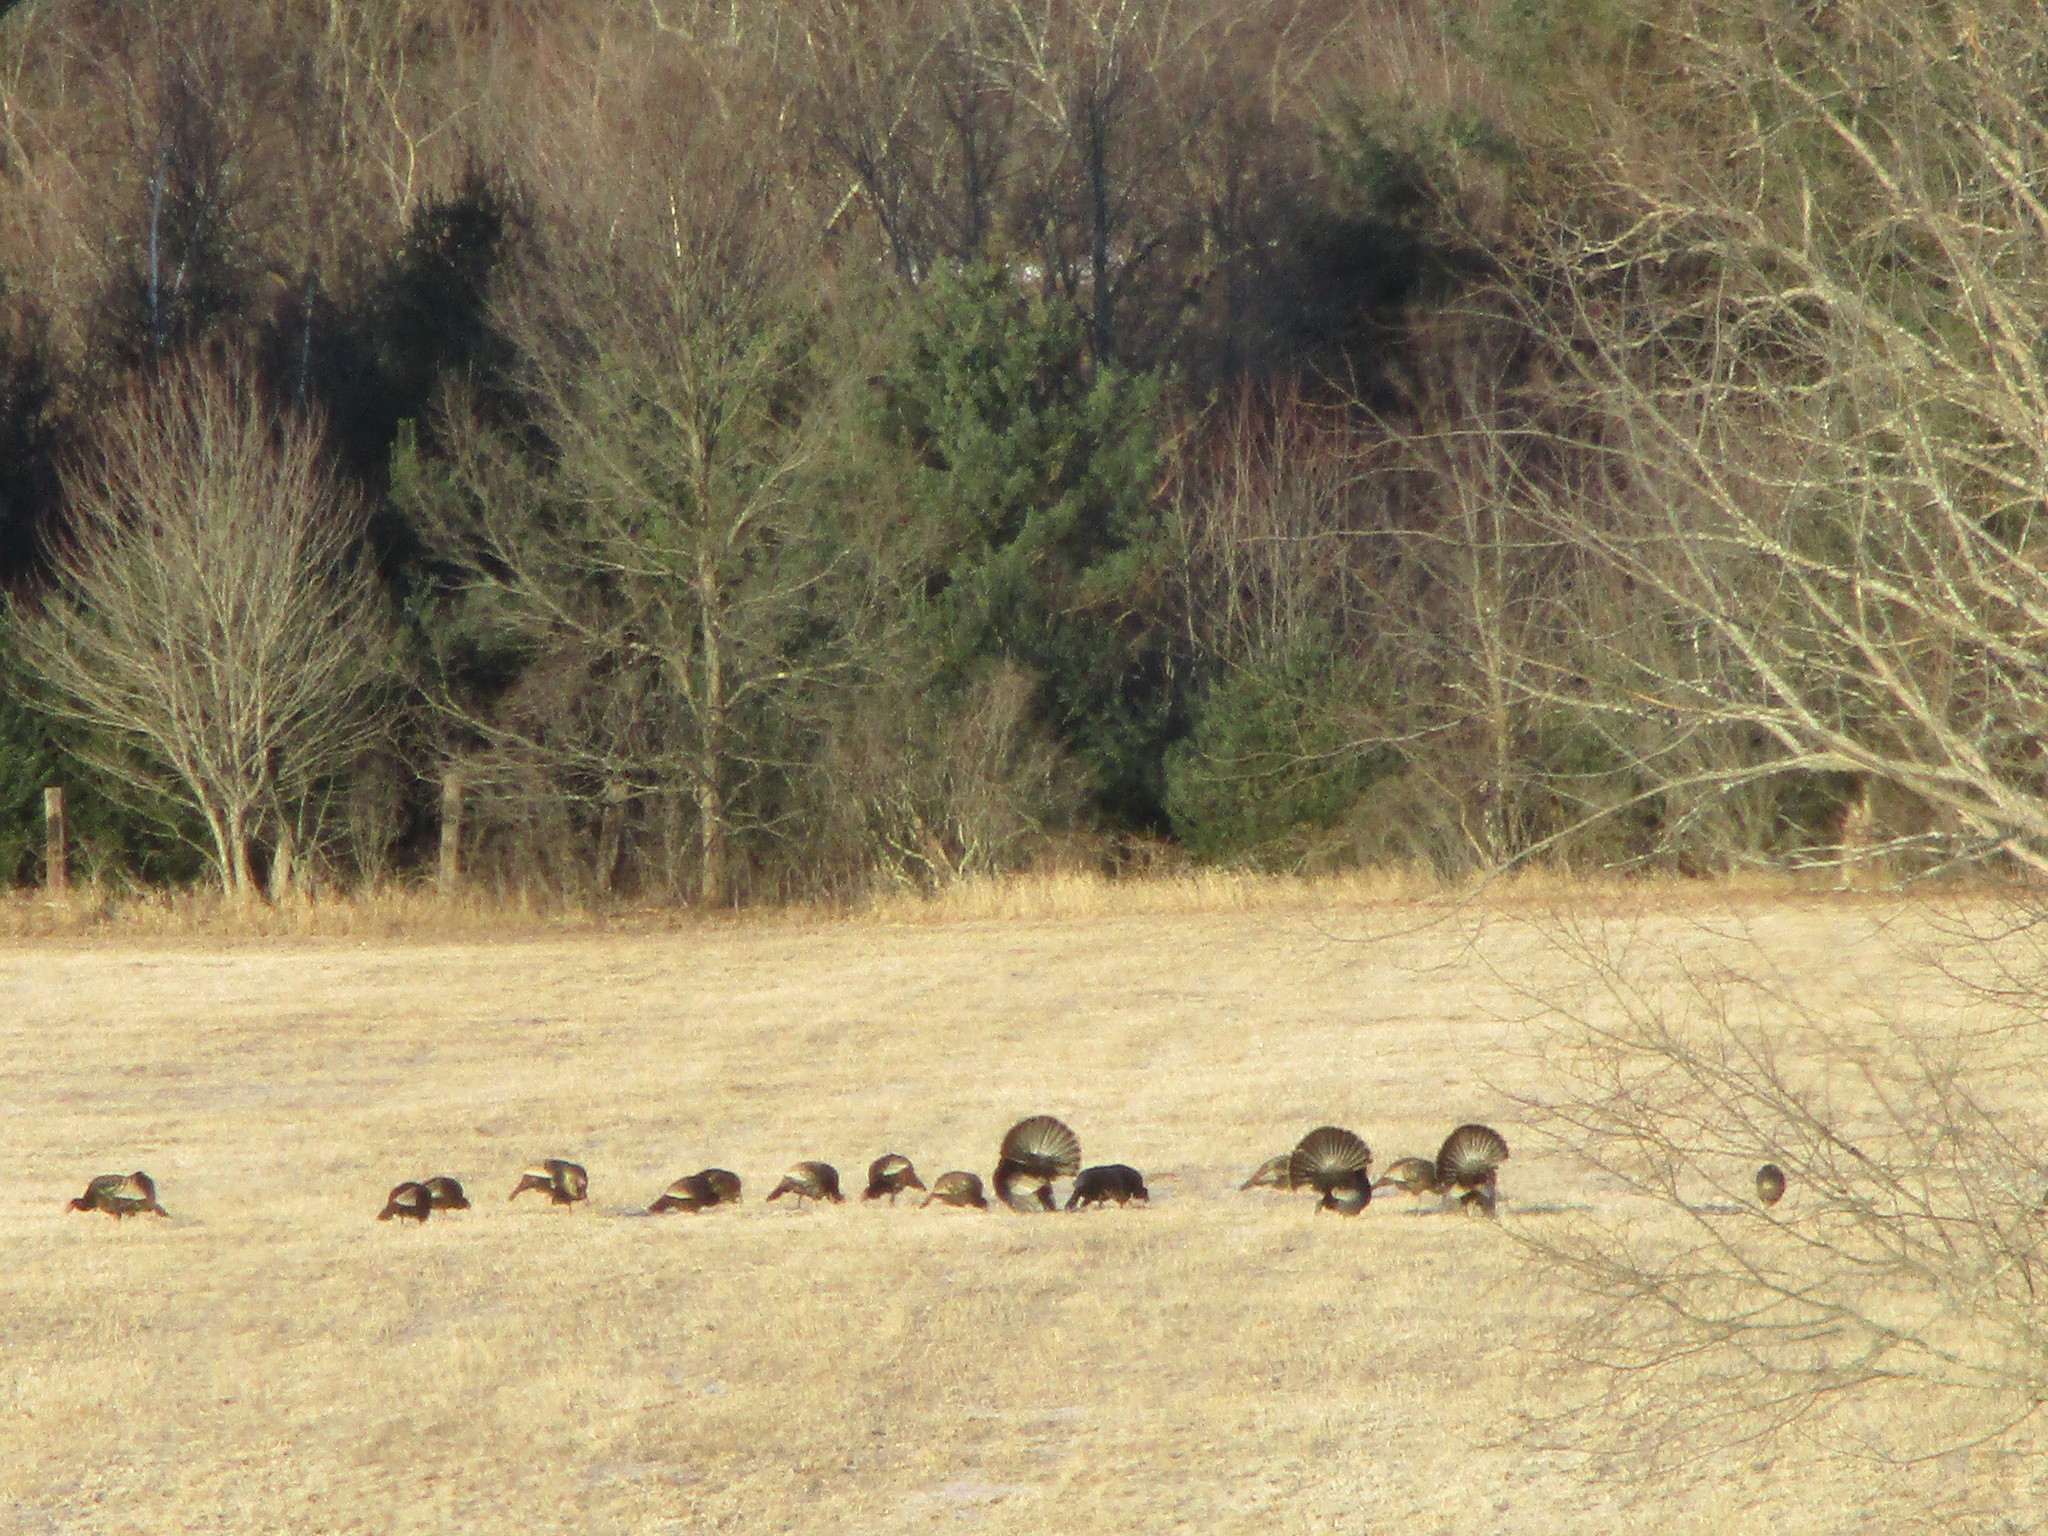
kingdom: Animalia
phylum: Chordata
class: Aves
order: Galliformes
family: Phasianidae
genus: Meleagris
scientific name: Meleagris gallopavo
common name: Wild turkey
